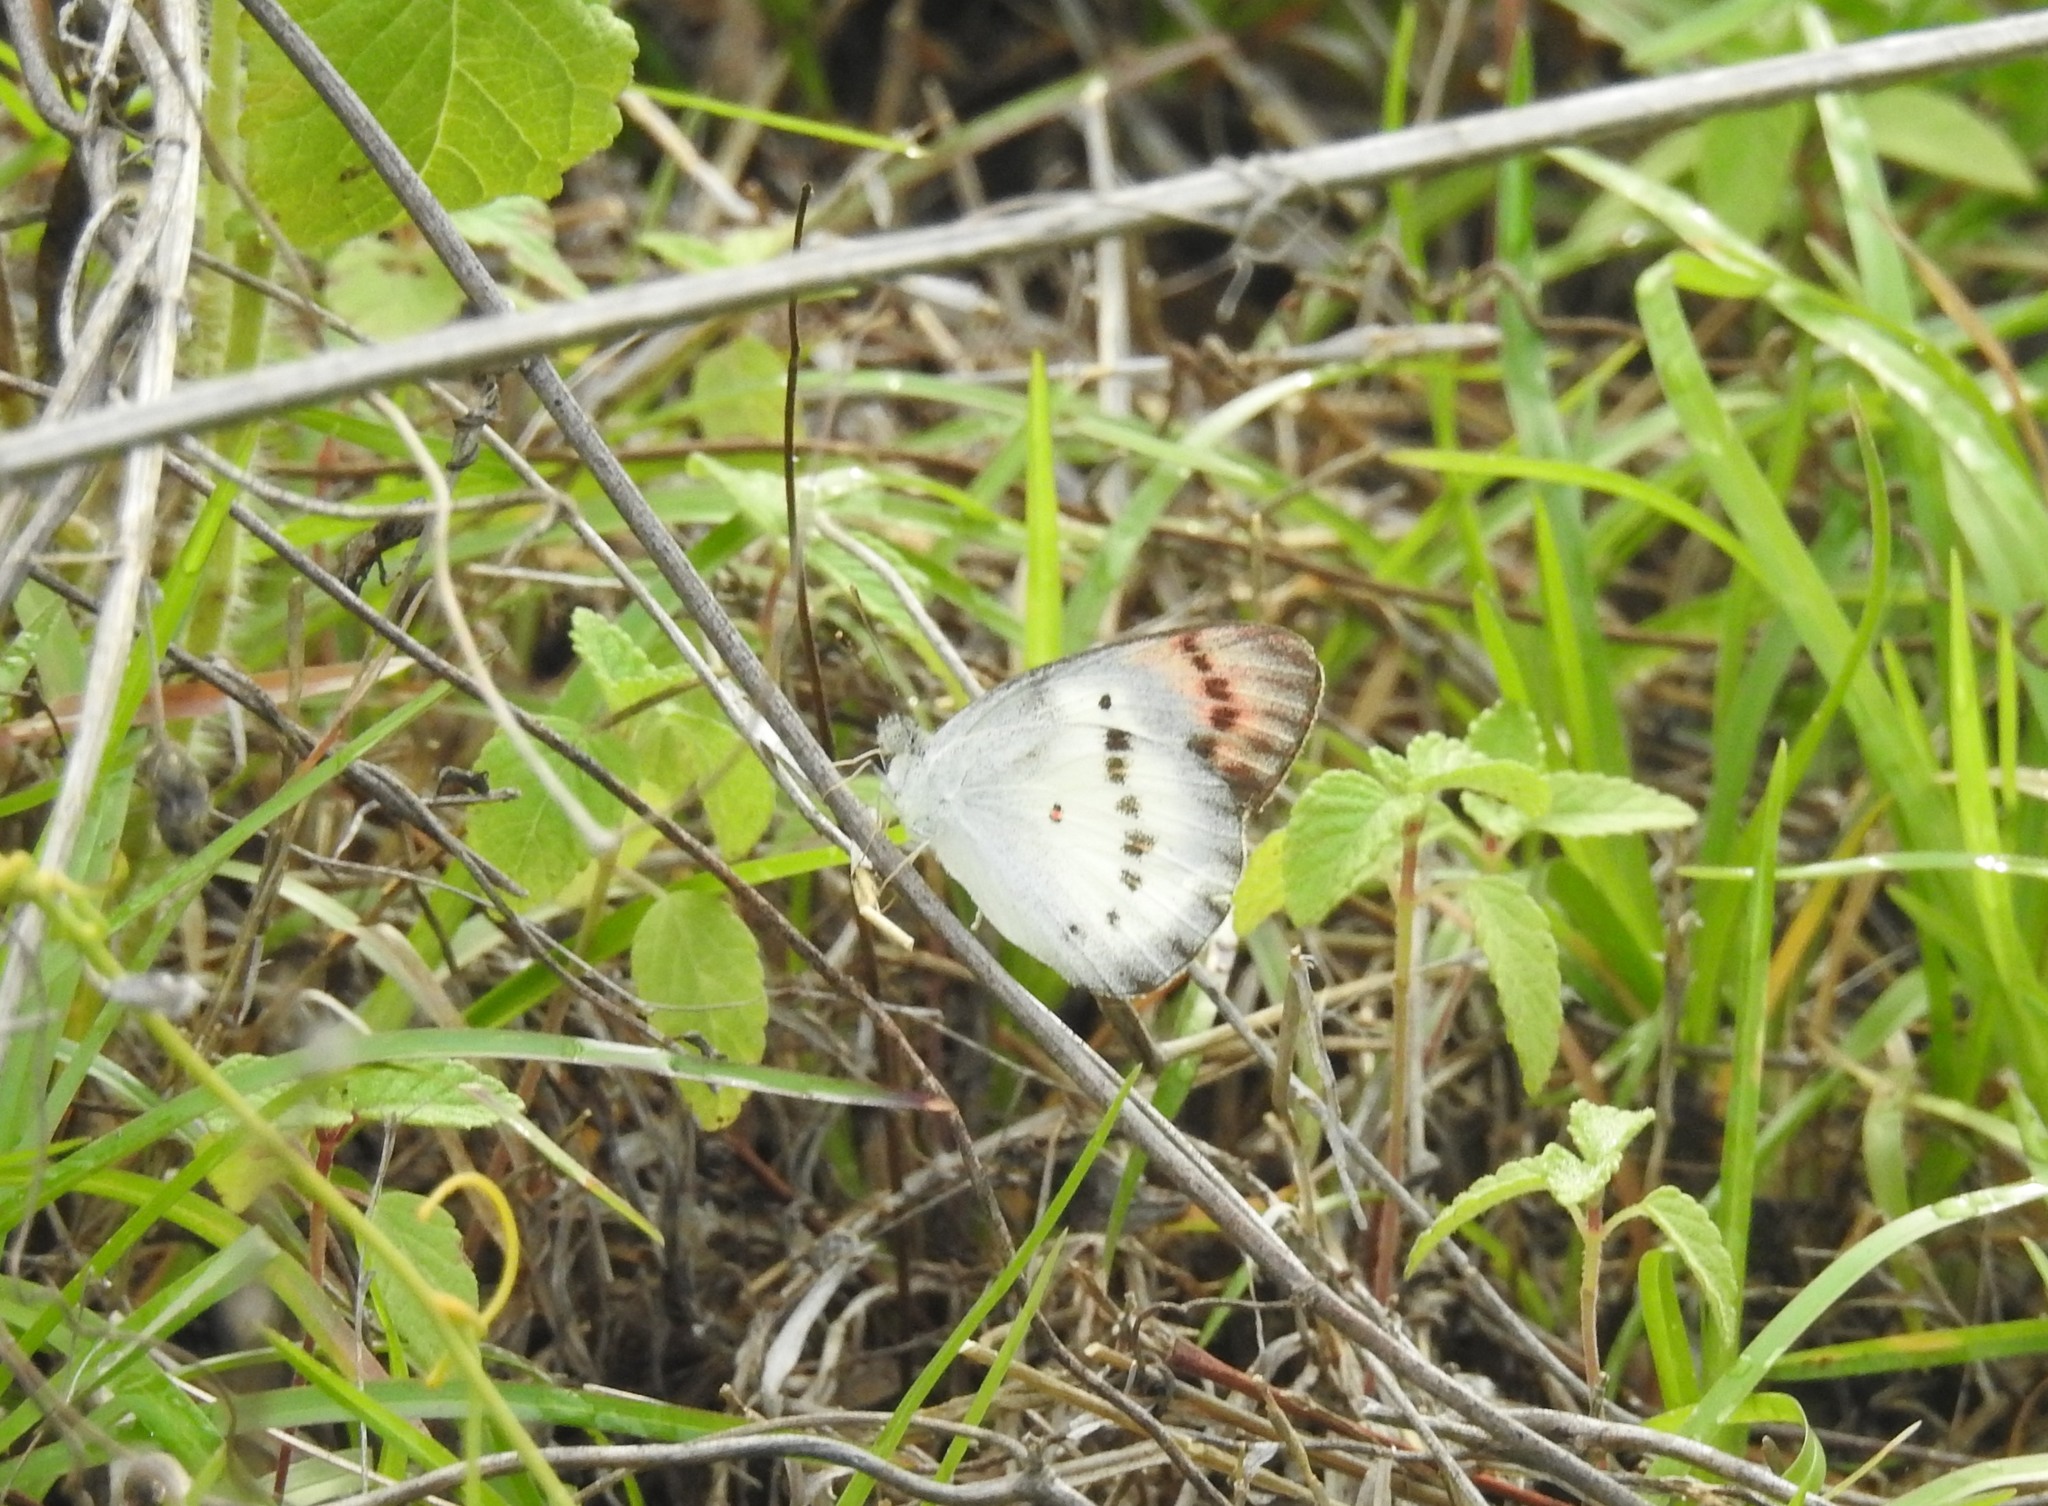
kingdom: Animalia
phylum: Arthropoda
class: Insecta
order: Lepidoptera
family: Pieridae
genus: Colotis
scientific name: Colotis danae
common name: Crimson tip
